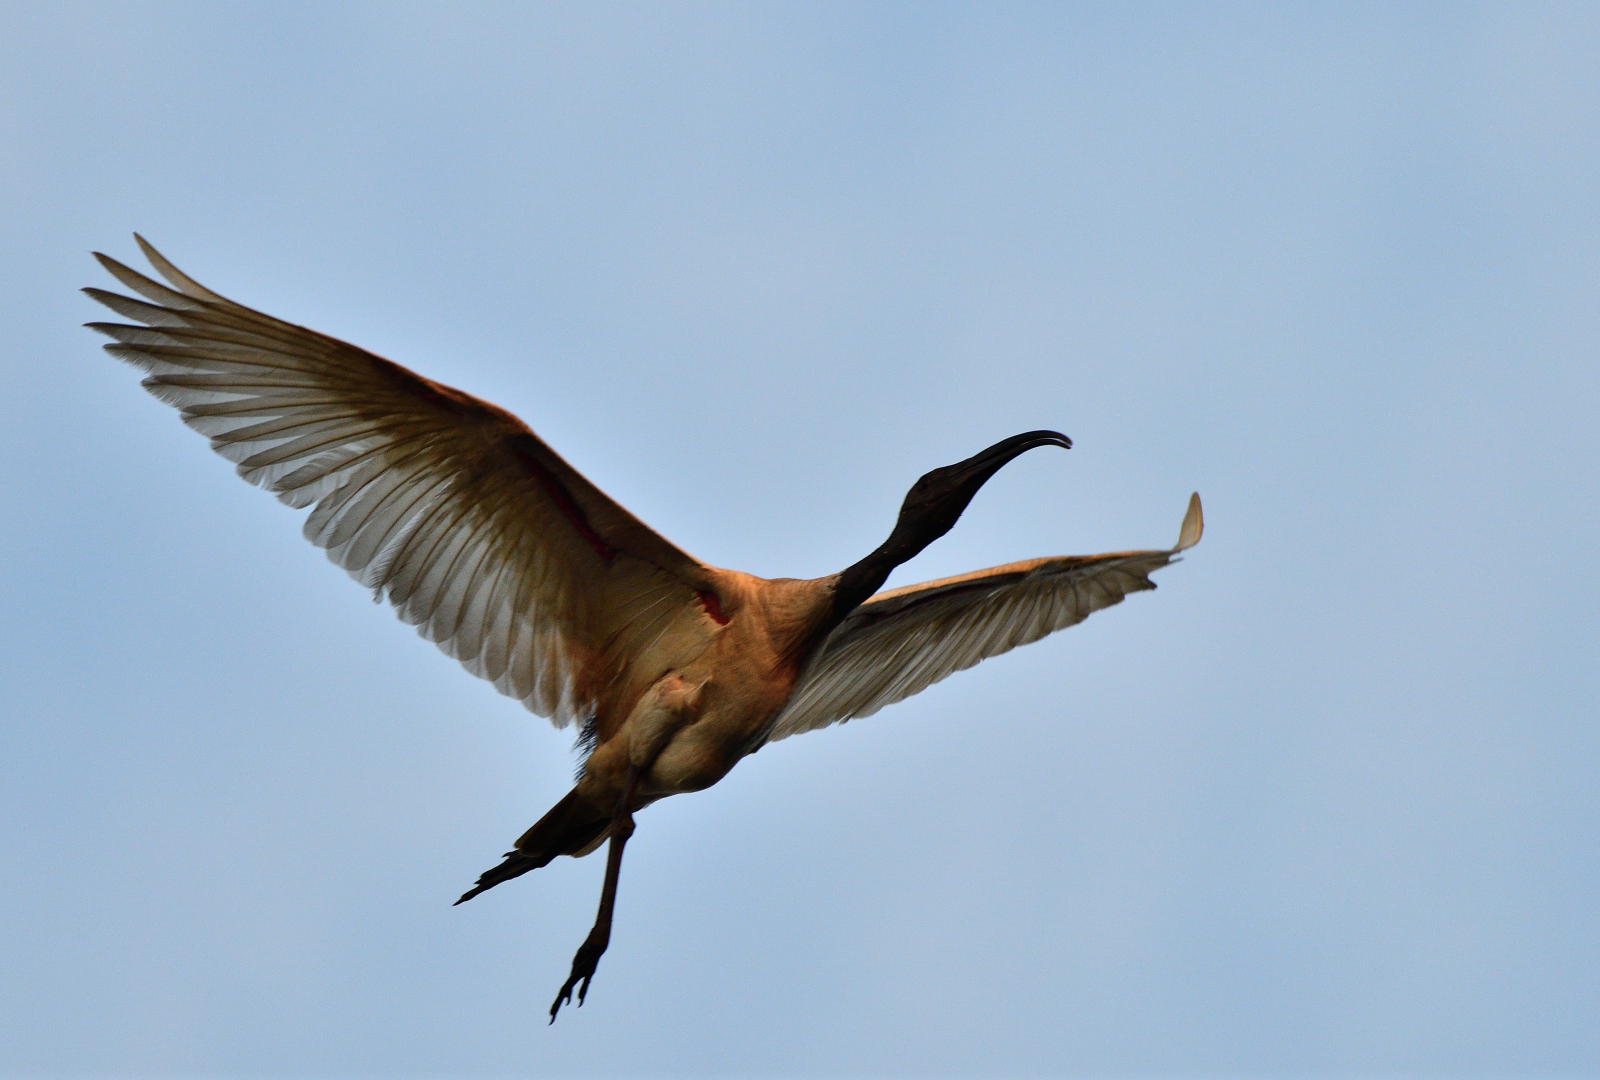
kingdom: Animalia
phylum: Chordata
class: Aves
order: Pelecaniformes
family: Threskiornithidae
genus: Threskiornis
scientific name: Threskiornis melanocephalus
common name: Black-headed ibis
